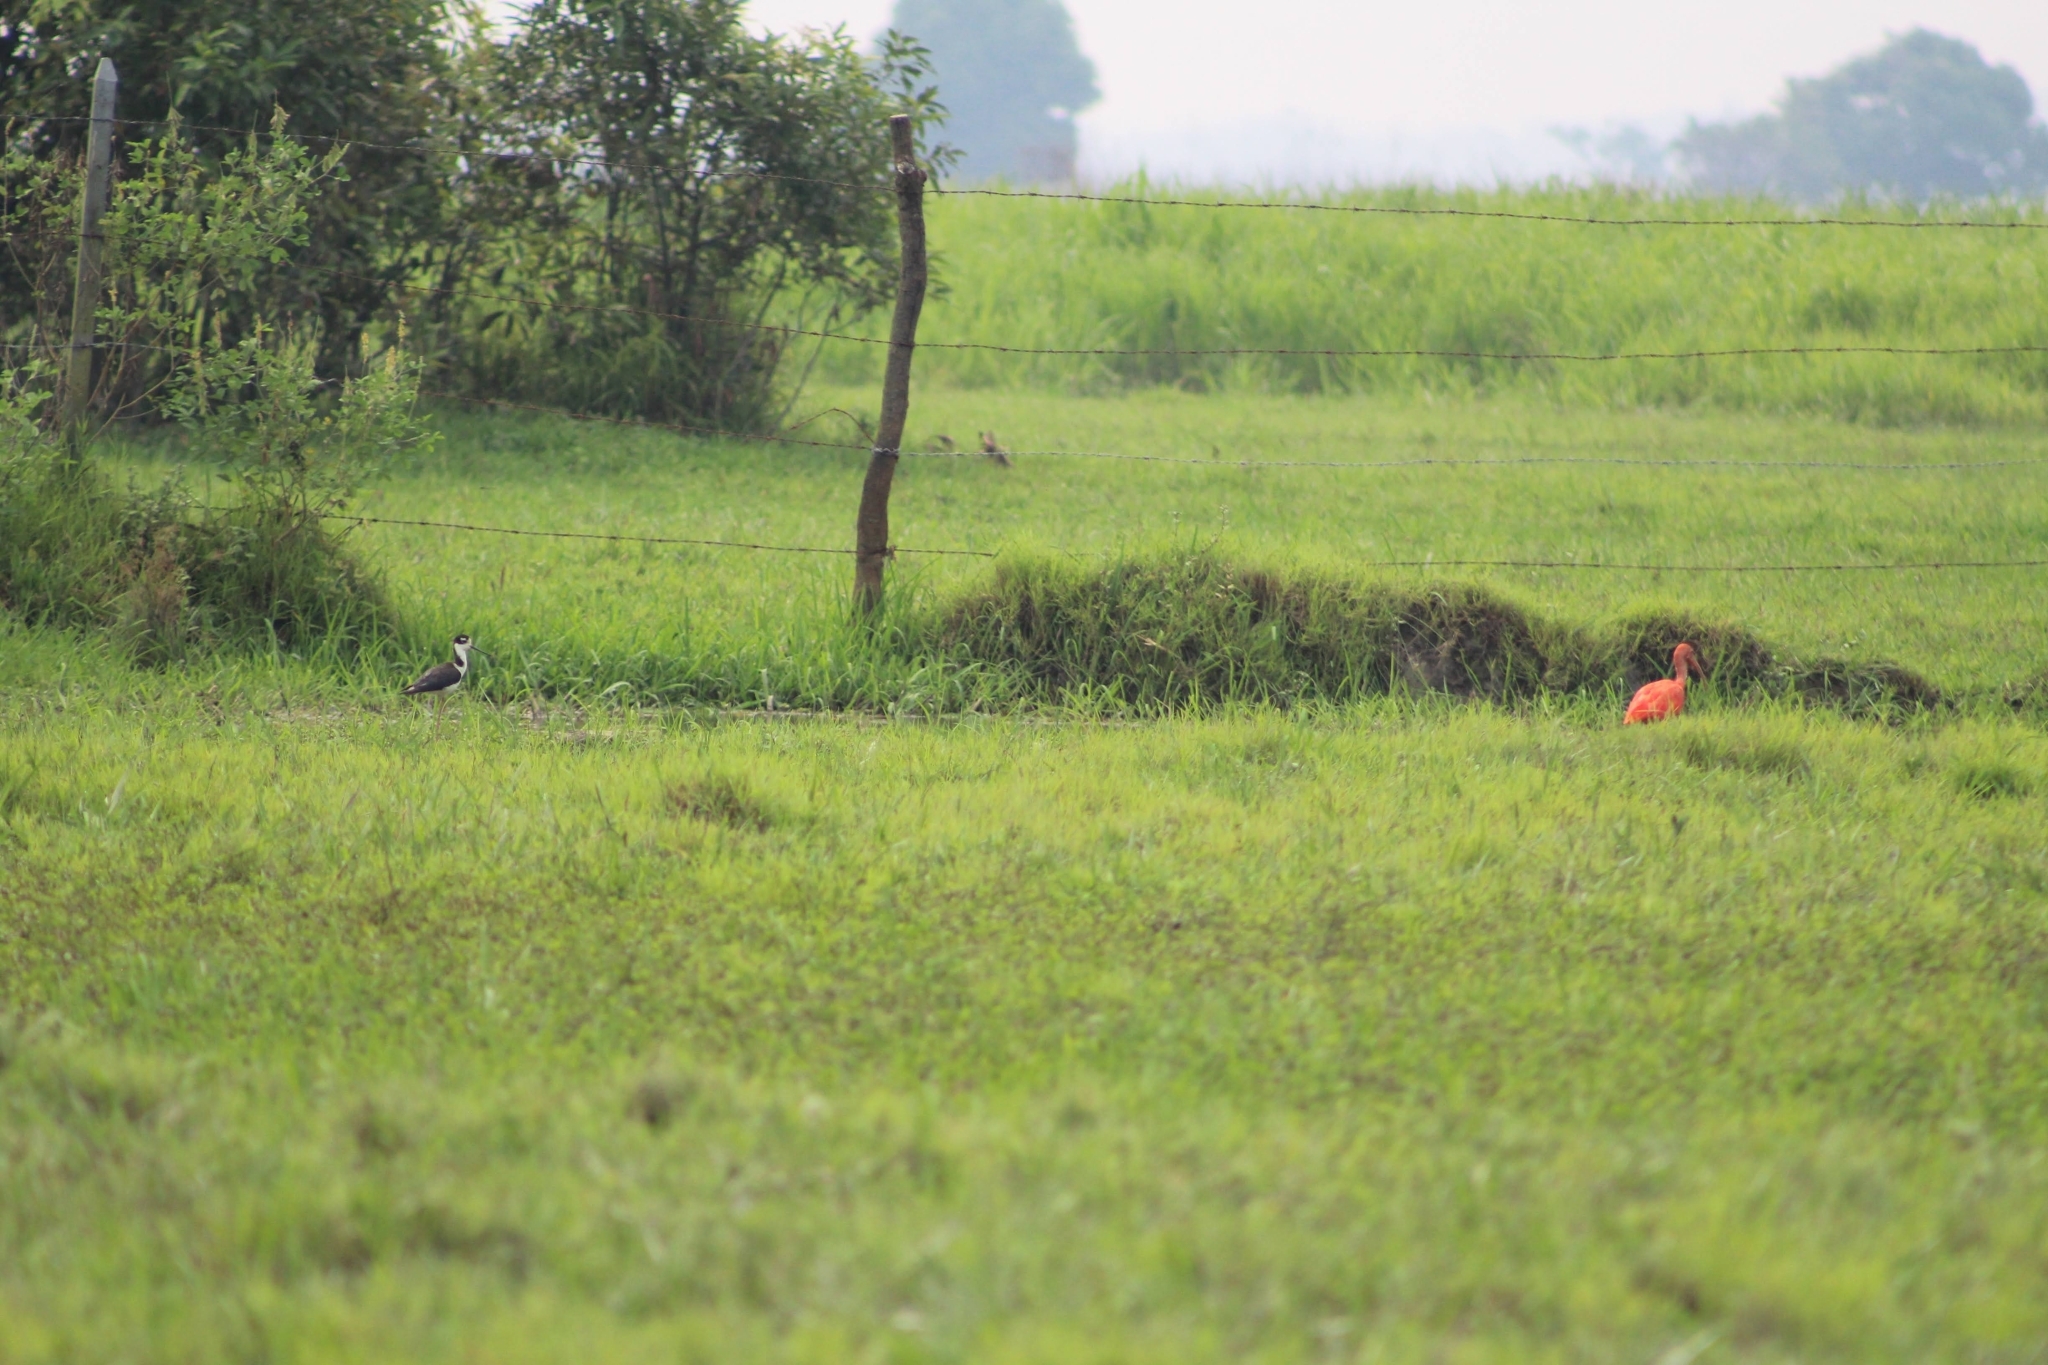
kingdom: Animalia
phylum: Chordata
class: Aves
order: Charadriiformes
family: Recurvirostridae
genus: Himantopus
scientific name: Himantopus mexicanus
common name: Black-necked stilt
